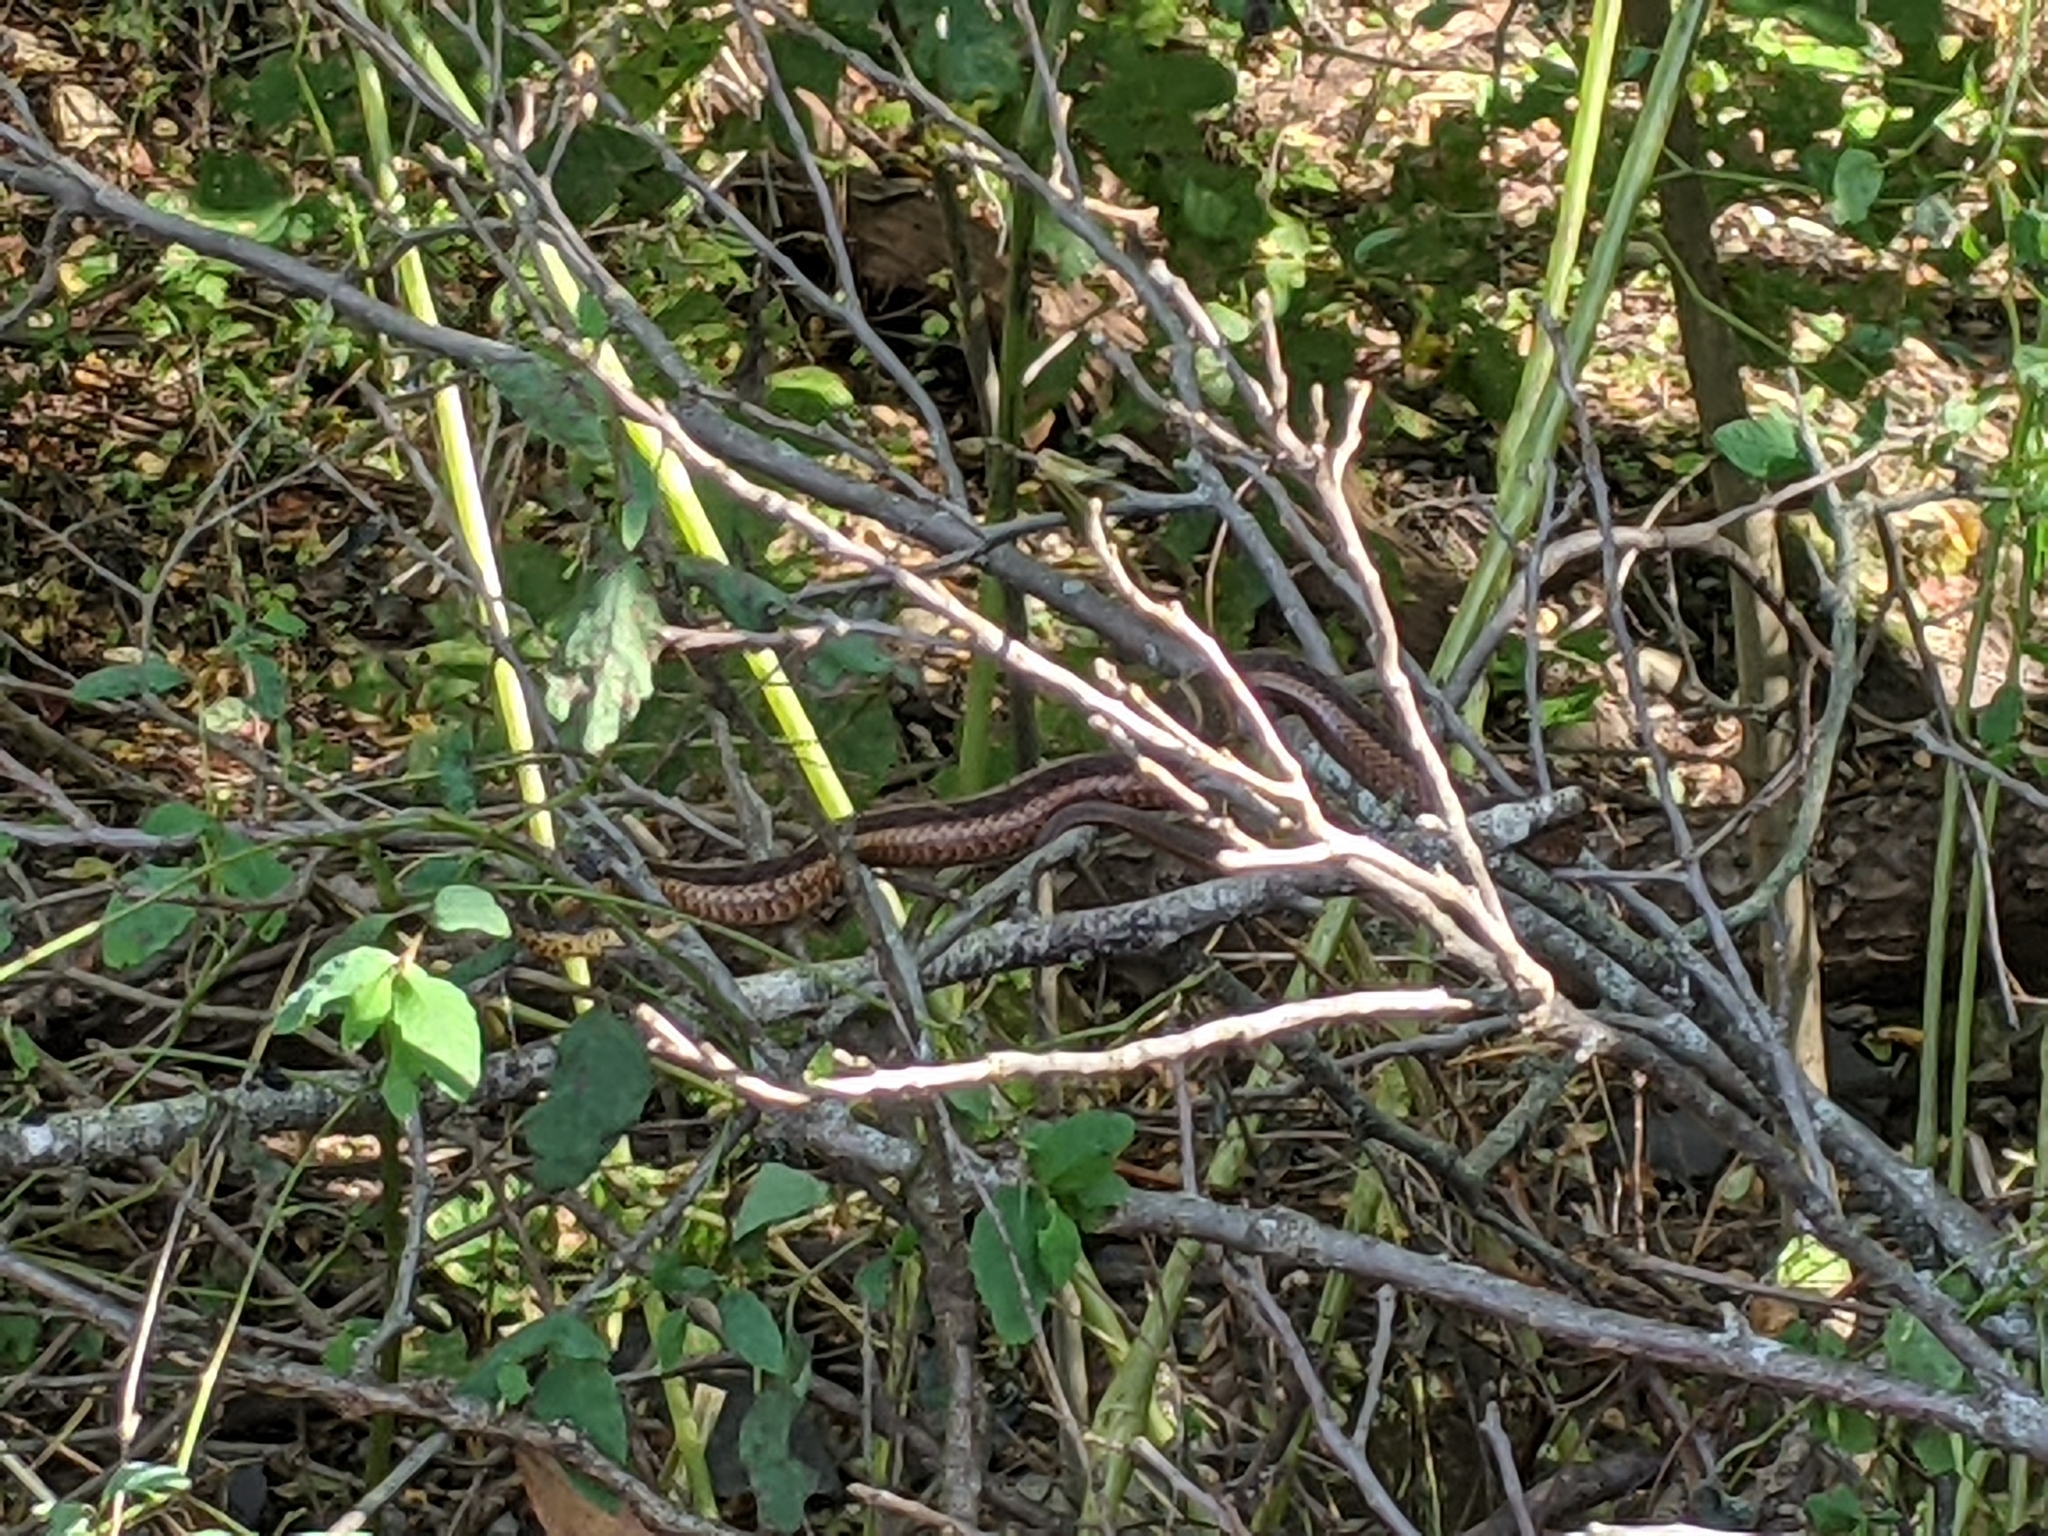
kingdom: Animalia
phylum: Chordata
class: Squamata
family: Colubridae
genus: Thamnophis
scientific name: Thamnophis sirtalis
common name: Common garter snake
